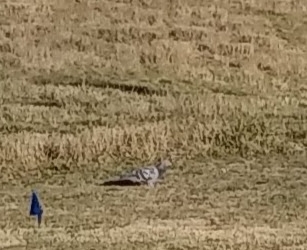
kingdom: Animalia
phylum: Chordata
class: Aves
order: Columbiformes
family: Columbidae
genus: Columba
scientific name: Columba livia
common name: Rock pigeon
